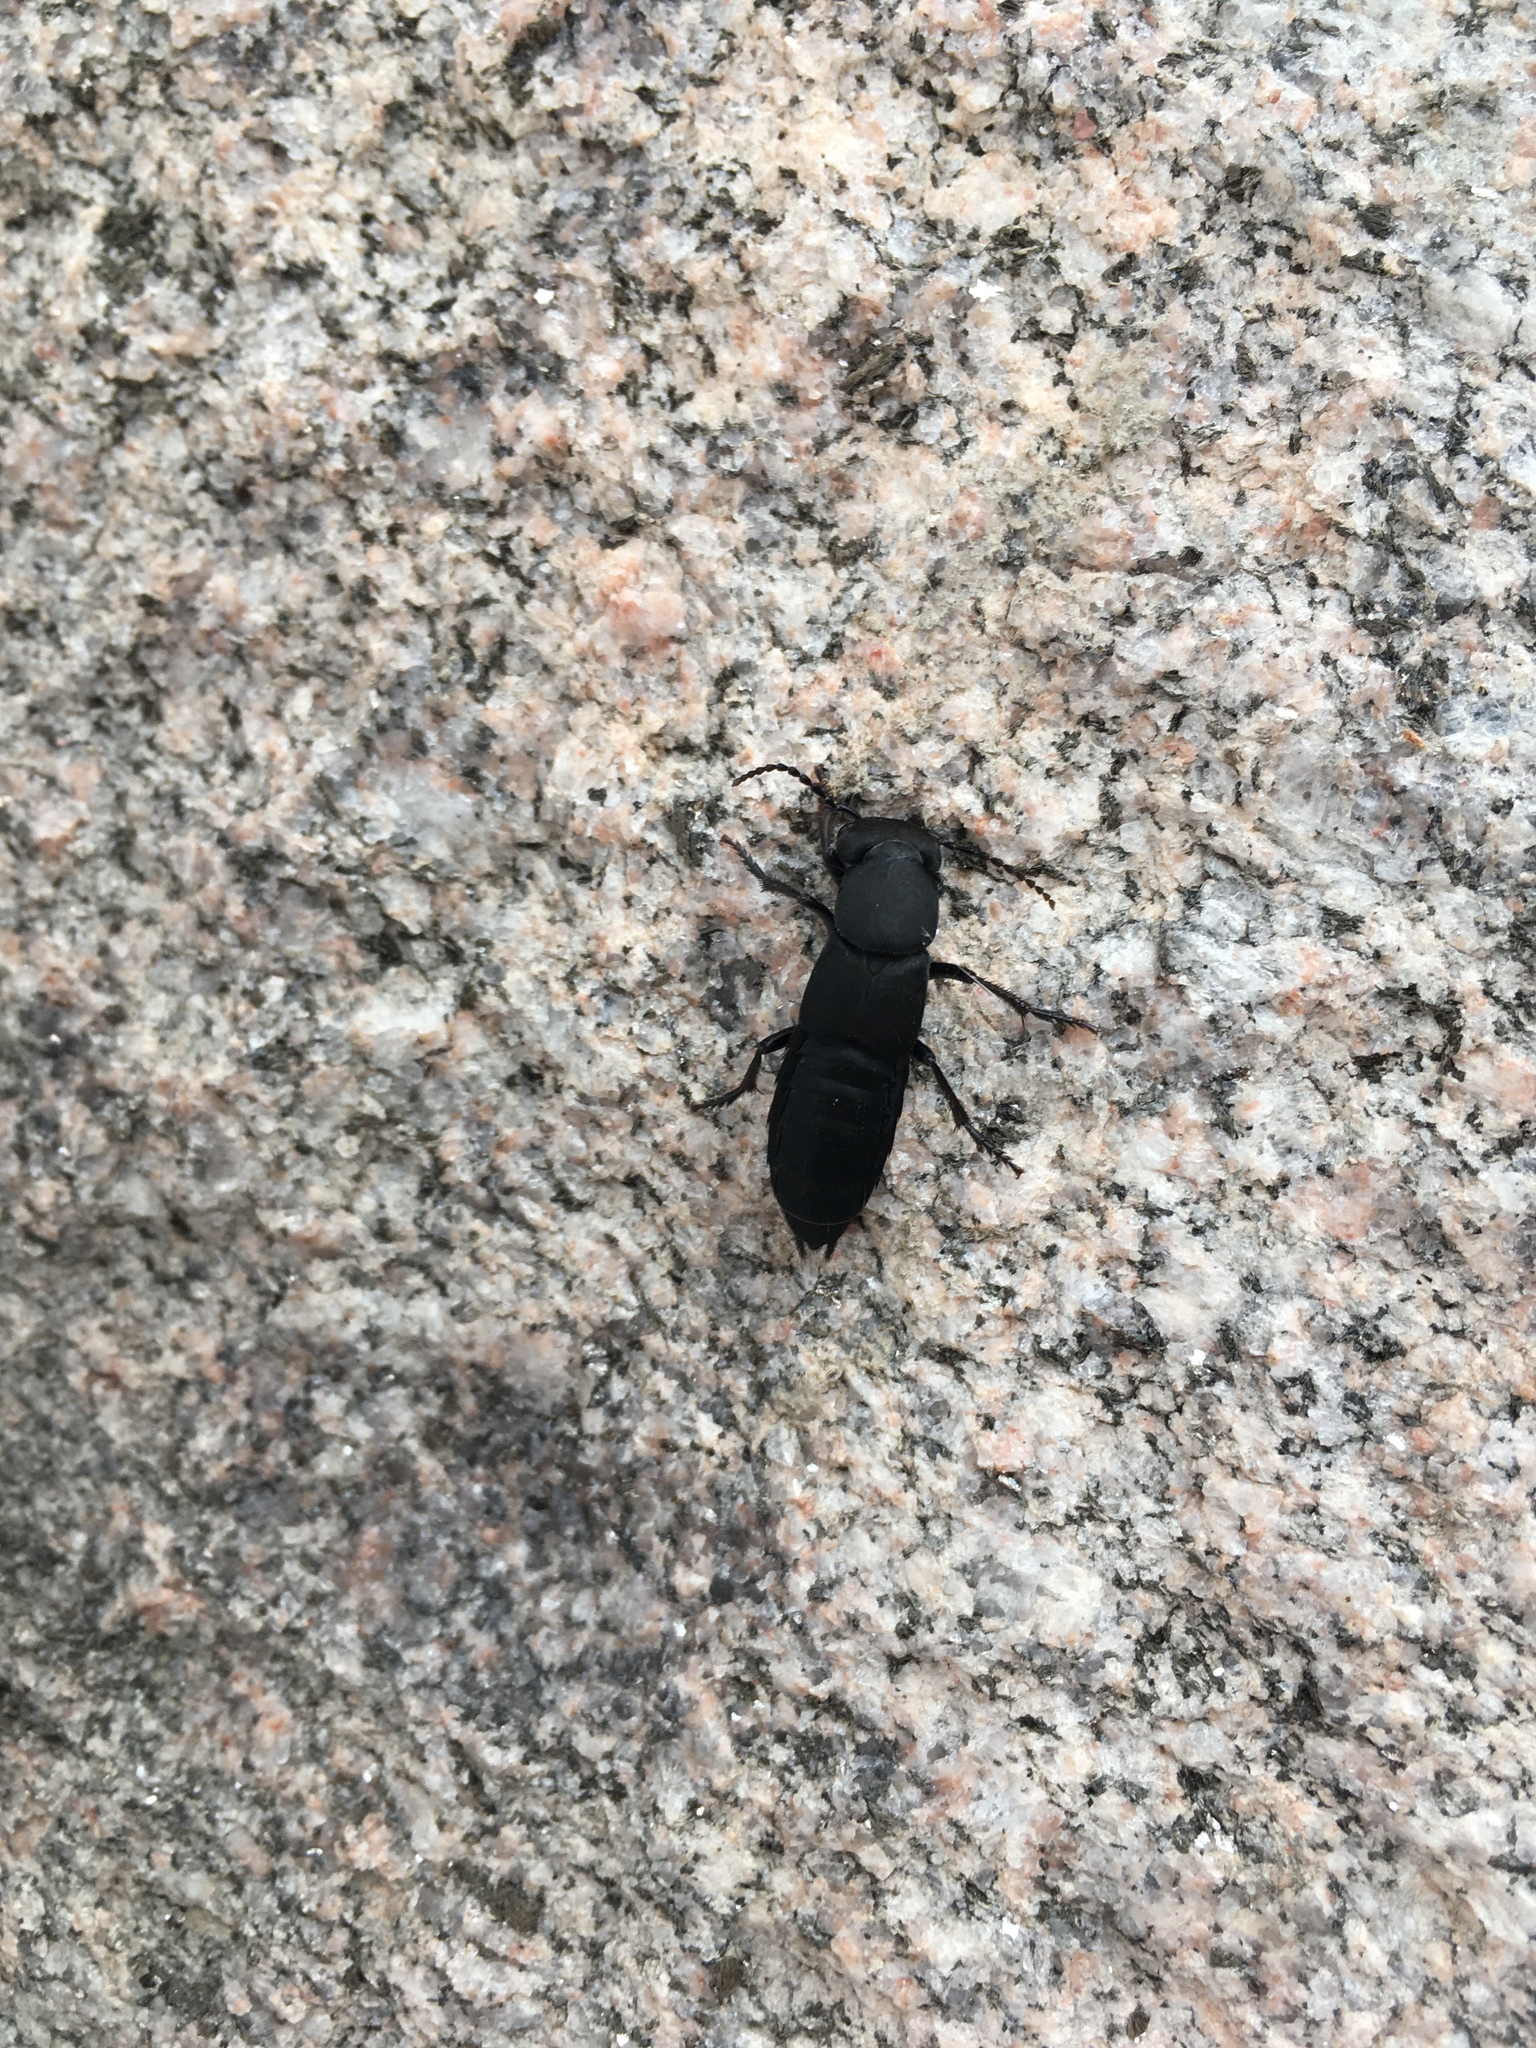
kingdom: Animalia
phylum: Arthropoda
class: Insecta
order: Coleoptera
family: Staphylinidae
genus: Ocypus
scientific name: Ocypus olens
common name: Devil's coach-horse
